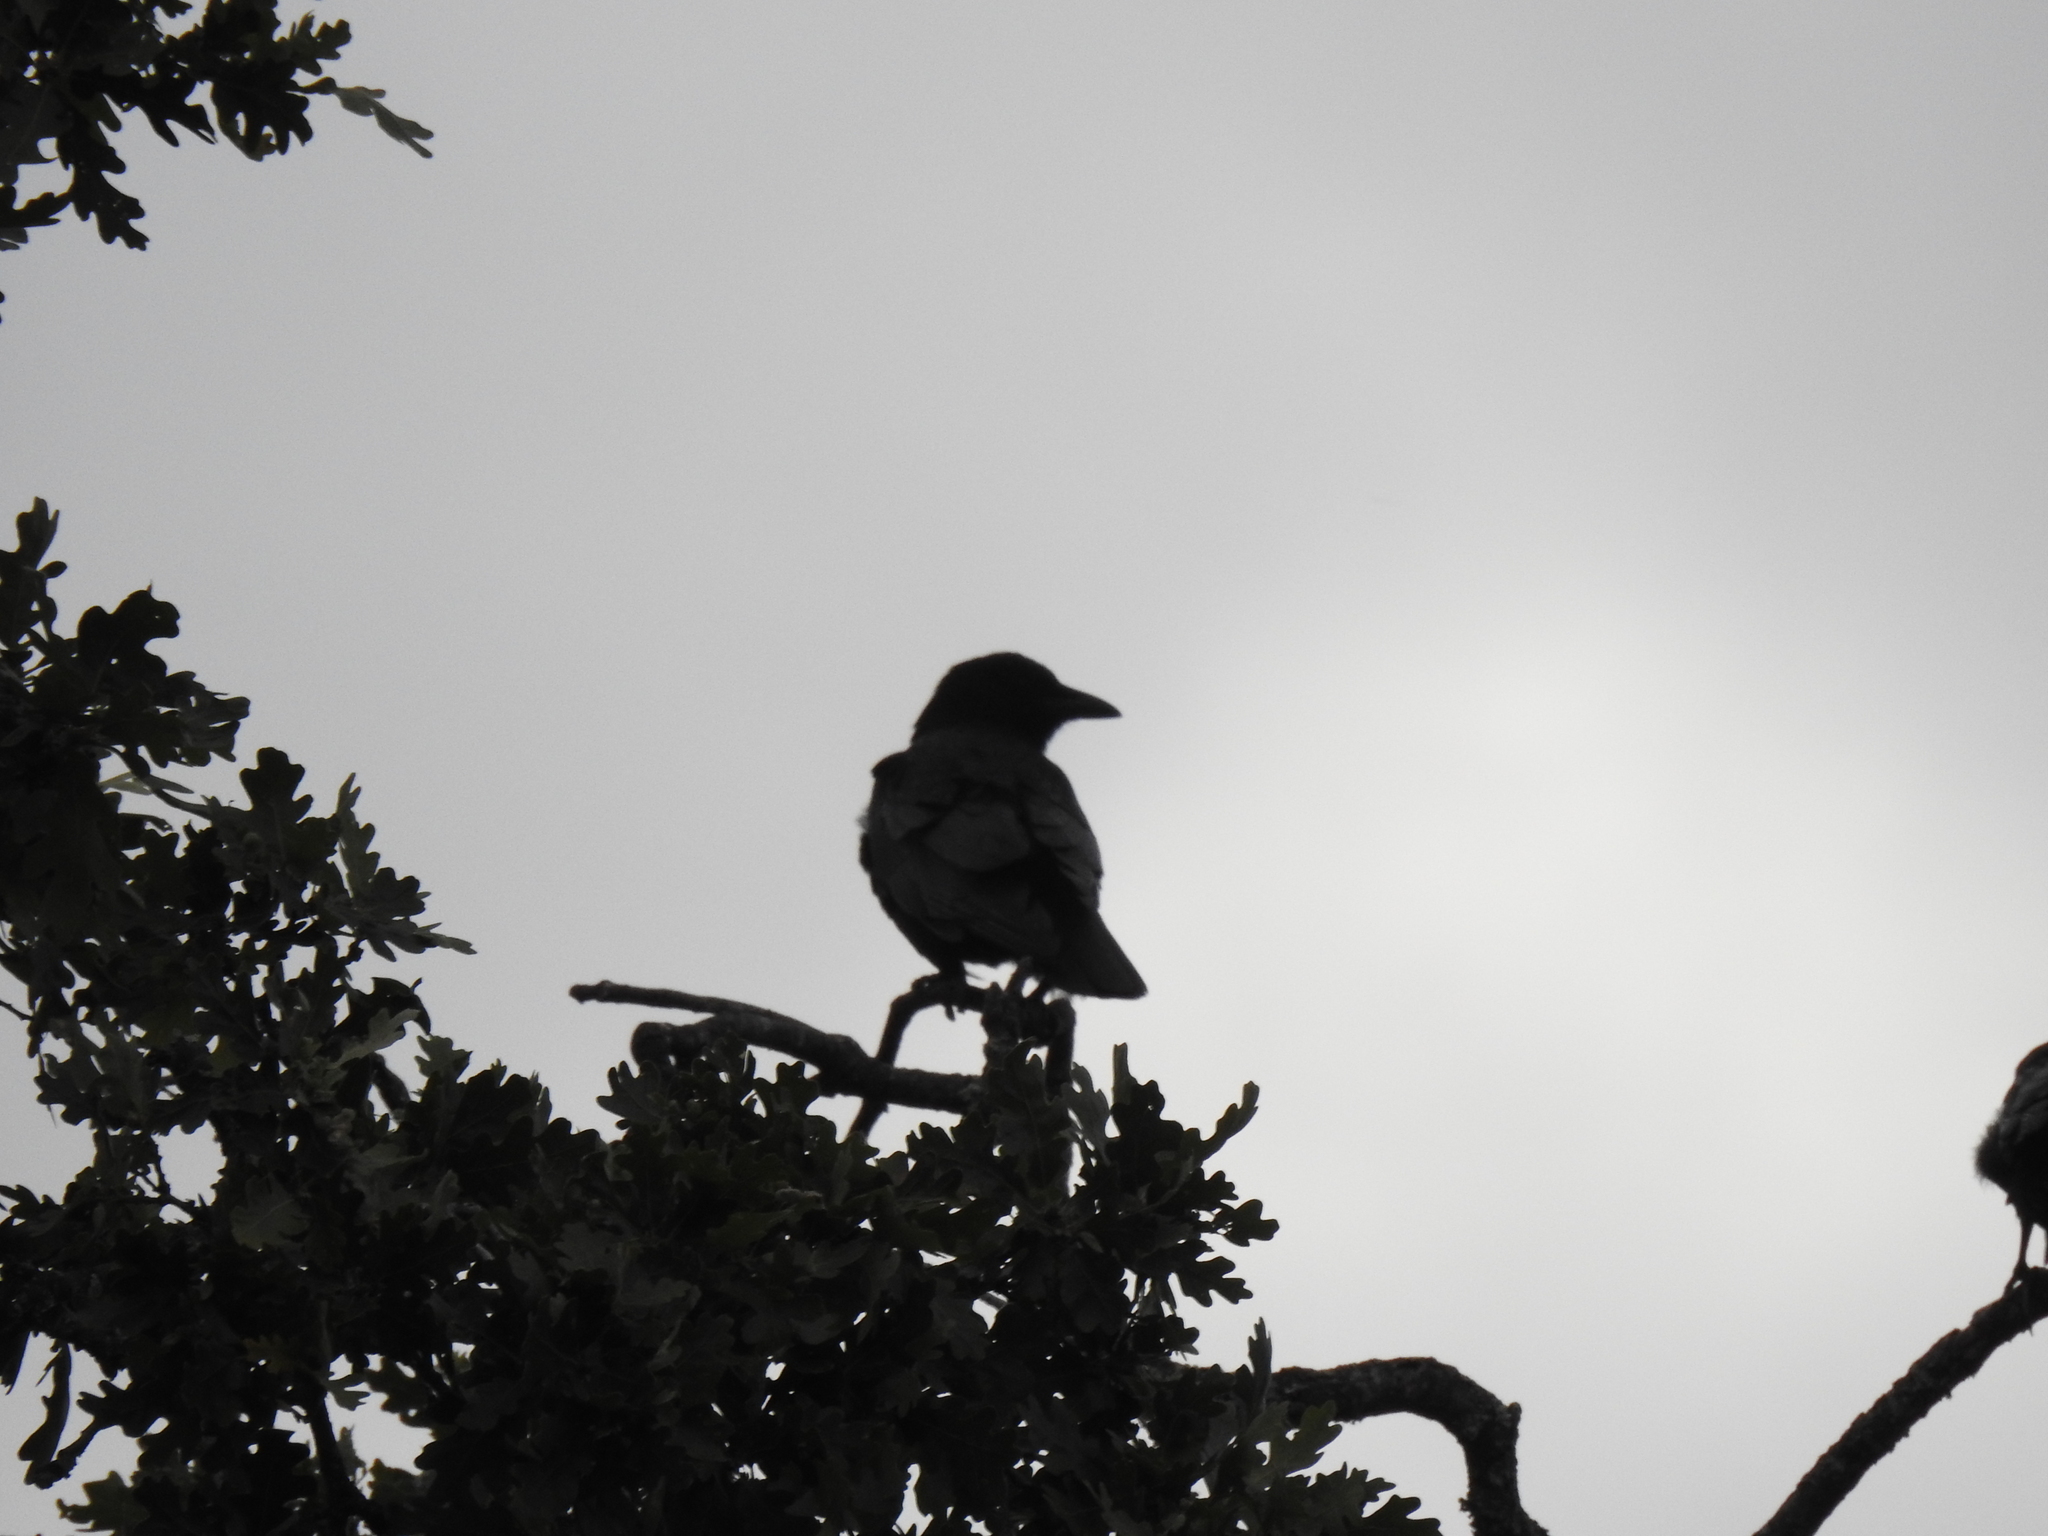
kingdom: Animalia
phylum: Chordata
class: Aves
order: Passeriformes
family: Corvidae
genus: Corvus
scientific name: Corvus brachyrhynchos
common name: American crow
